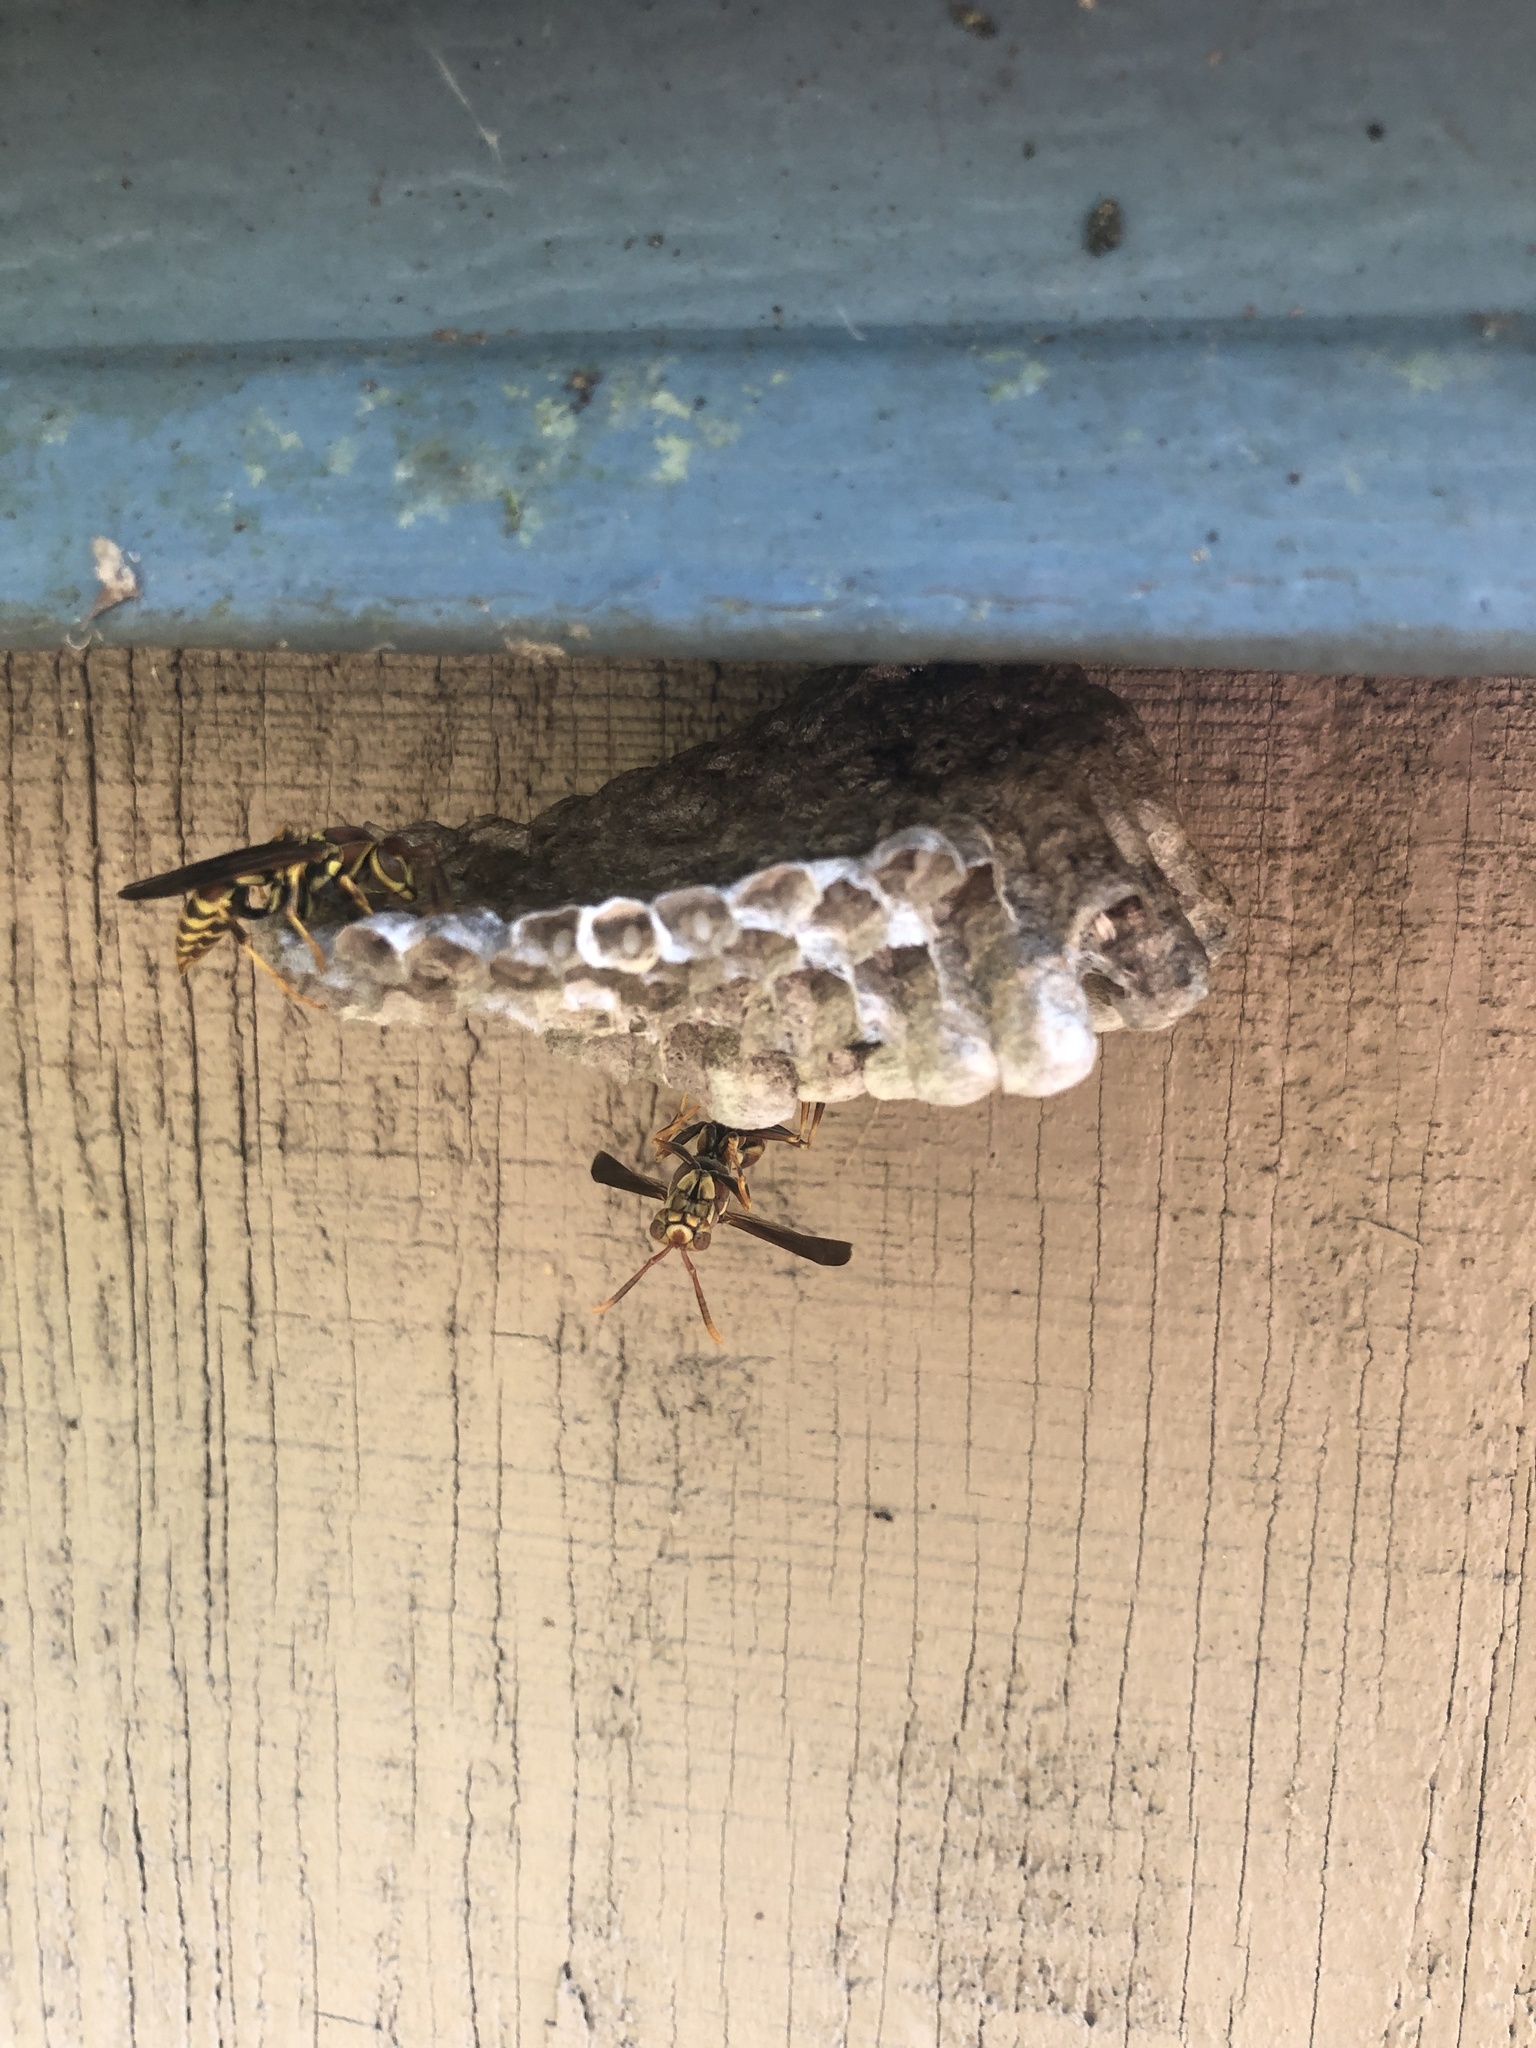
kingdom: Animalia
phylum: Arthropoda
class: Insecta
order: Hymenoptera
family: Eumenidae
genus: Polistes
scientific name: Polistes exclamans
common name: Paper wasp
